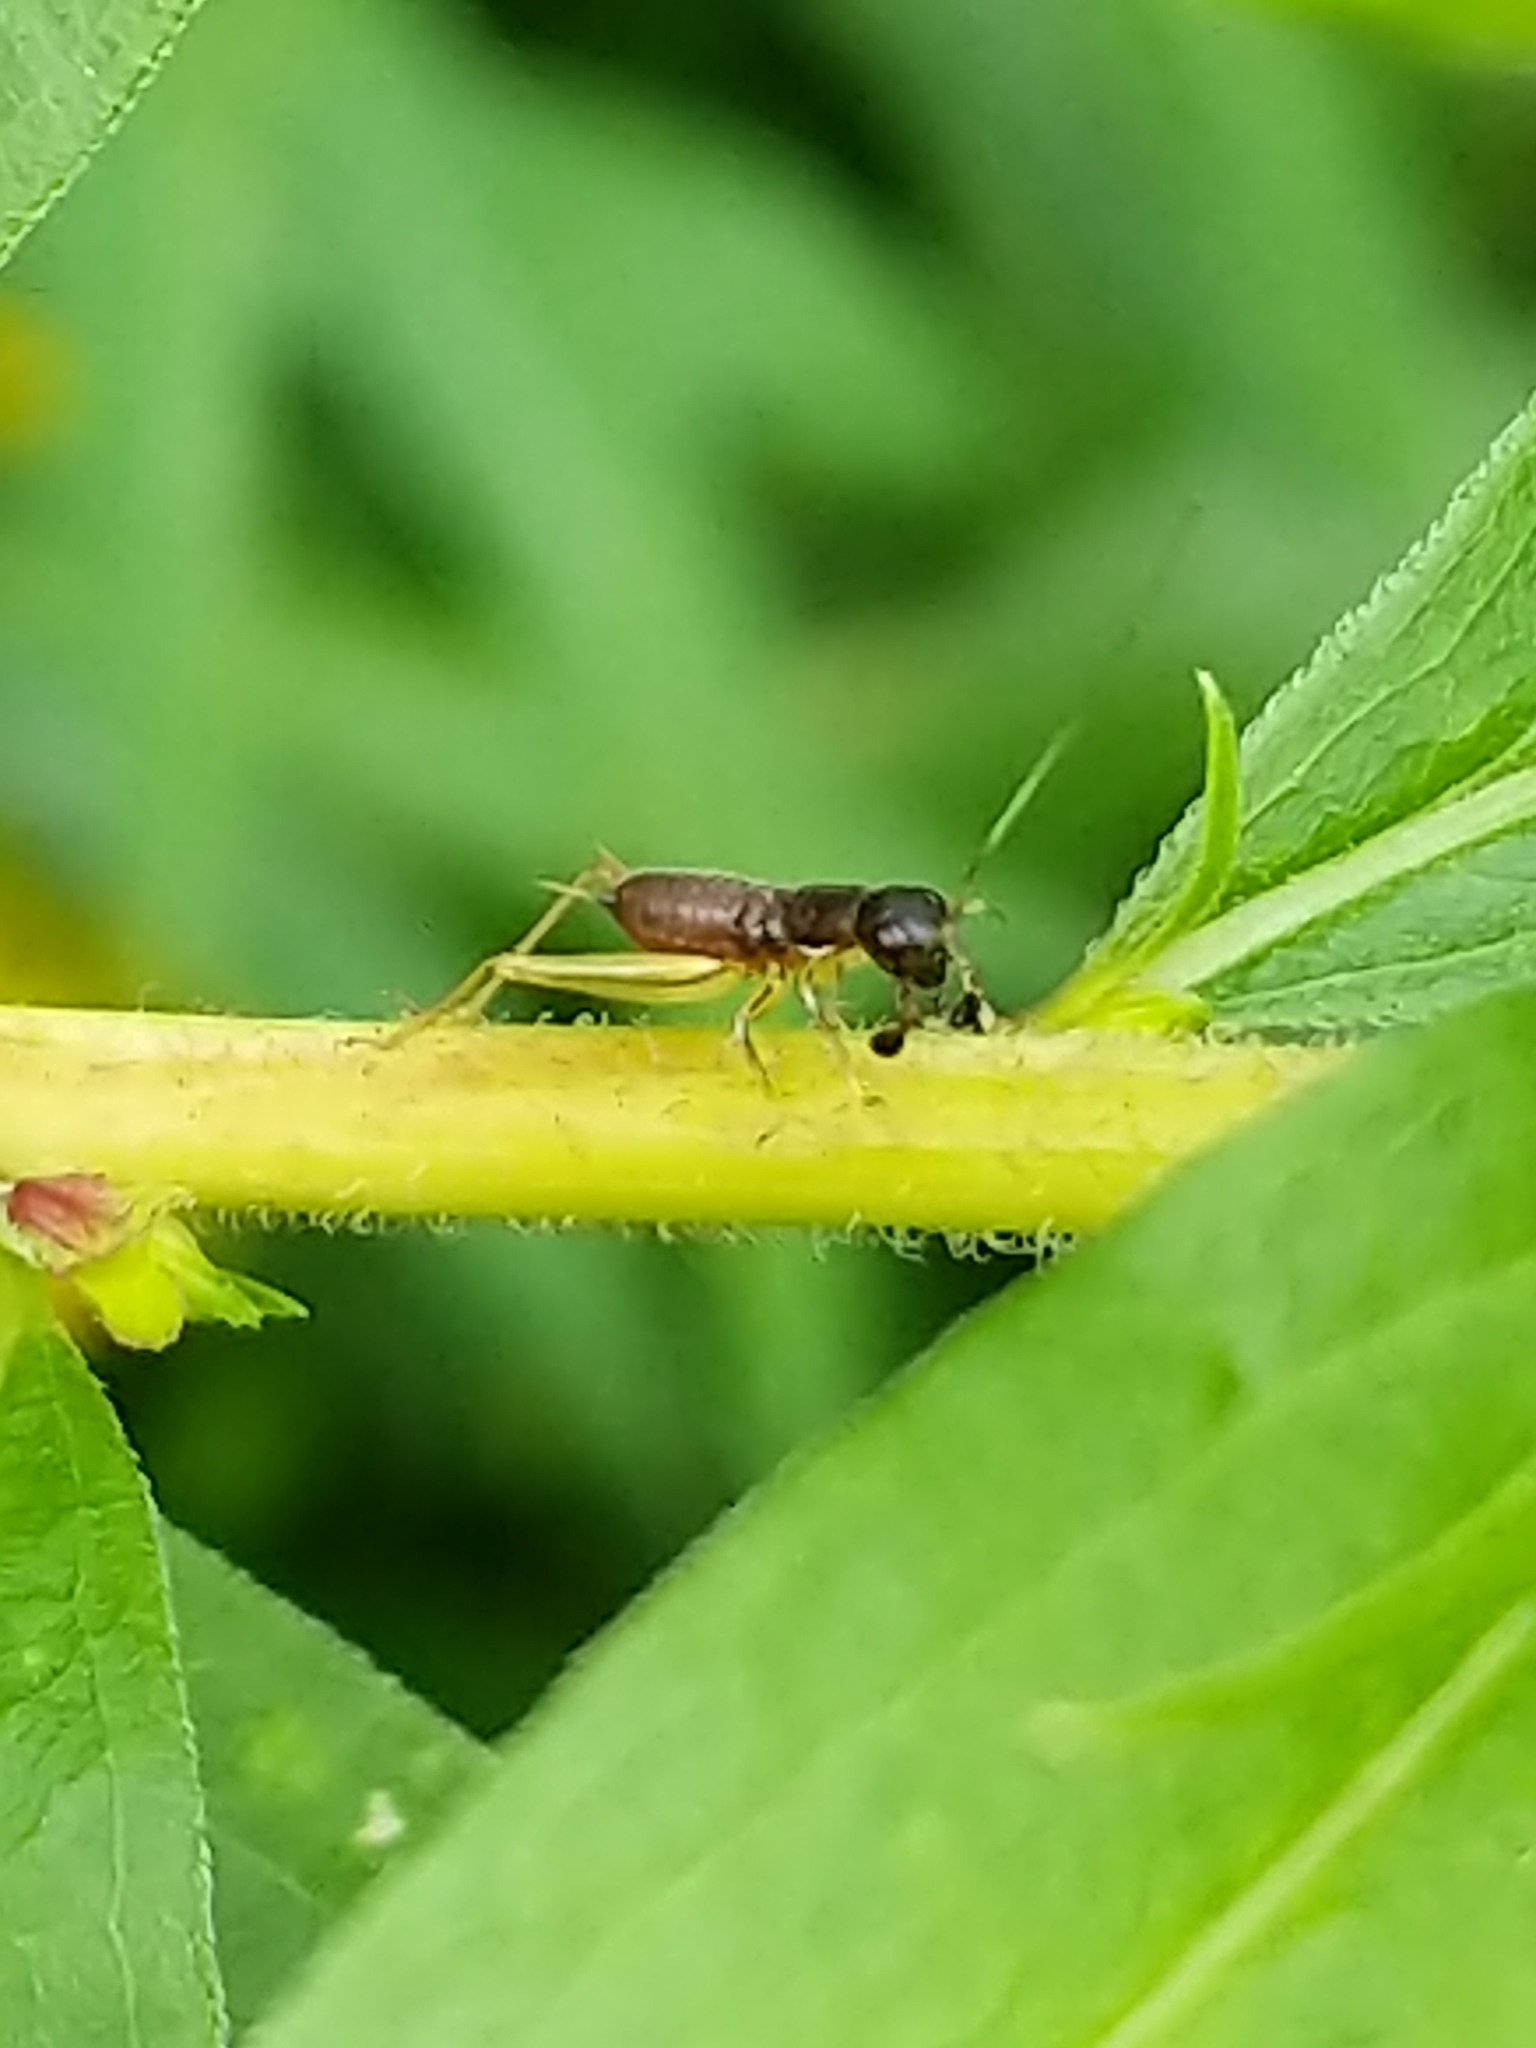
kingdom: Animalia
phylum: Arthropoda
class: Insecta
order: Orthoptera
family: Trigonidiidae
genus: Phyllopalpus
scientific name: Phyllopalpus pulchellus
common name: Handsome trig
